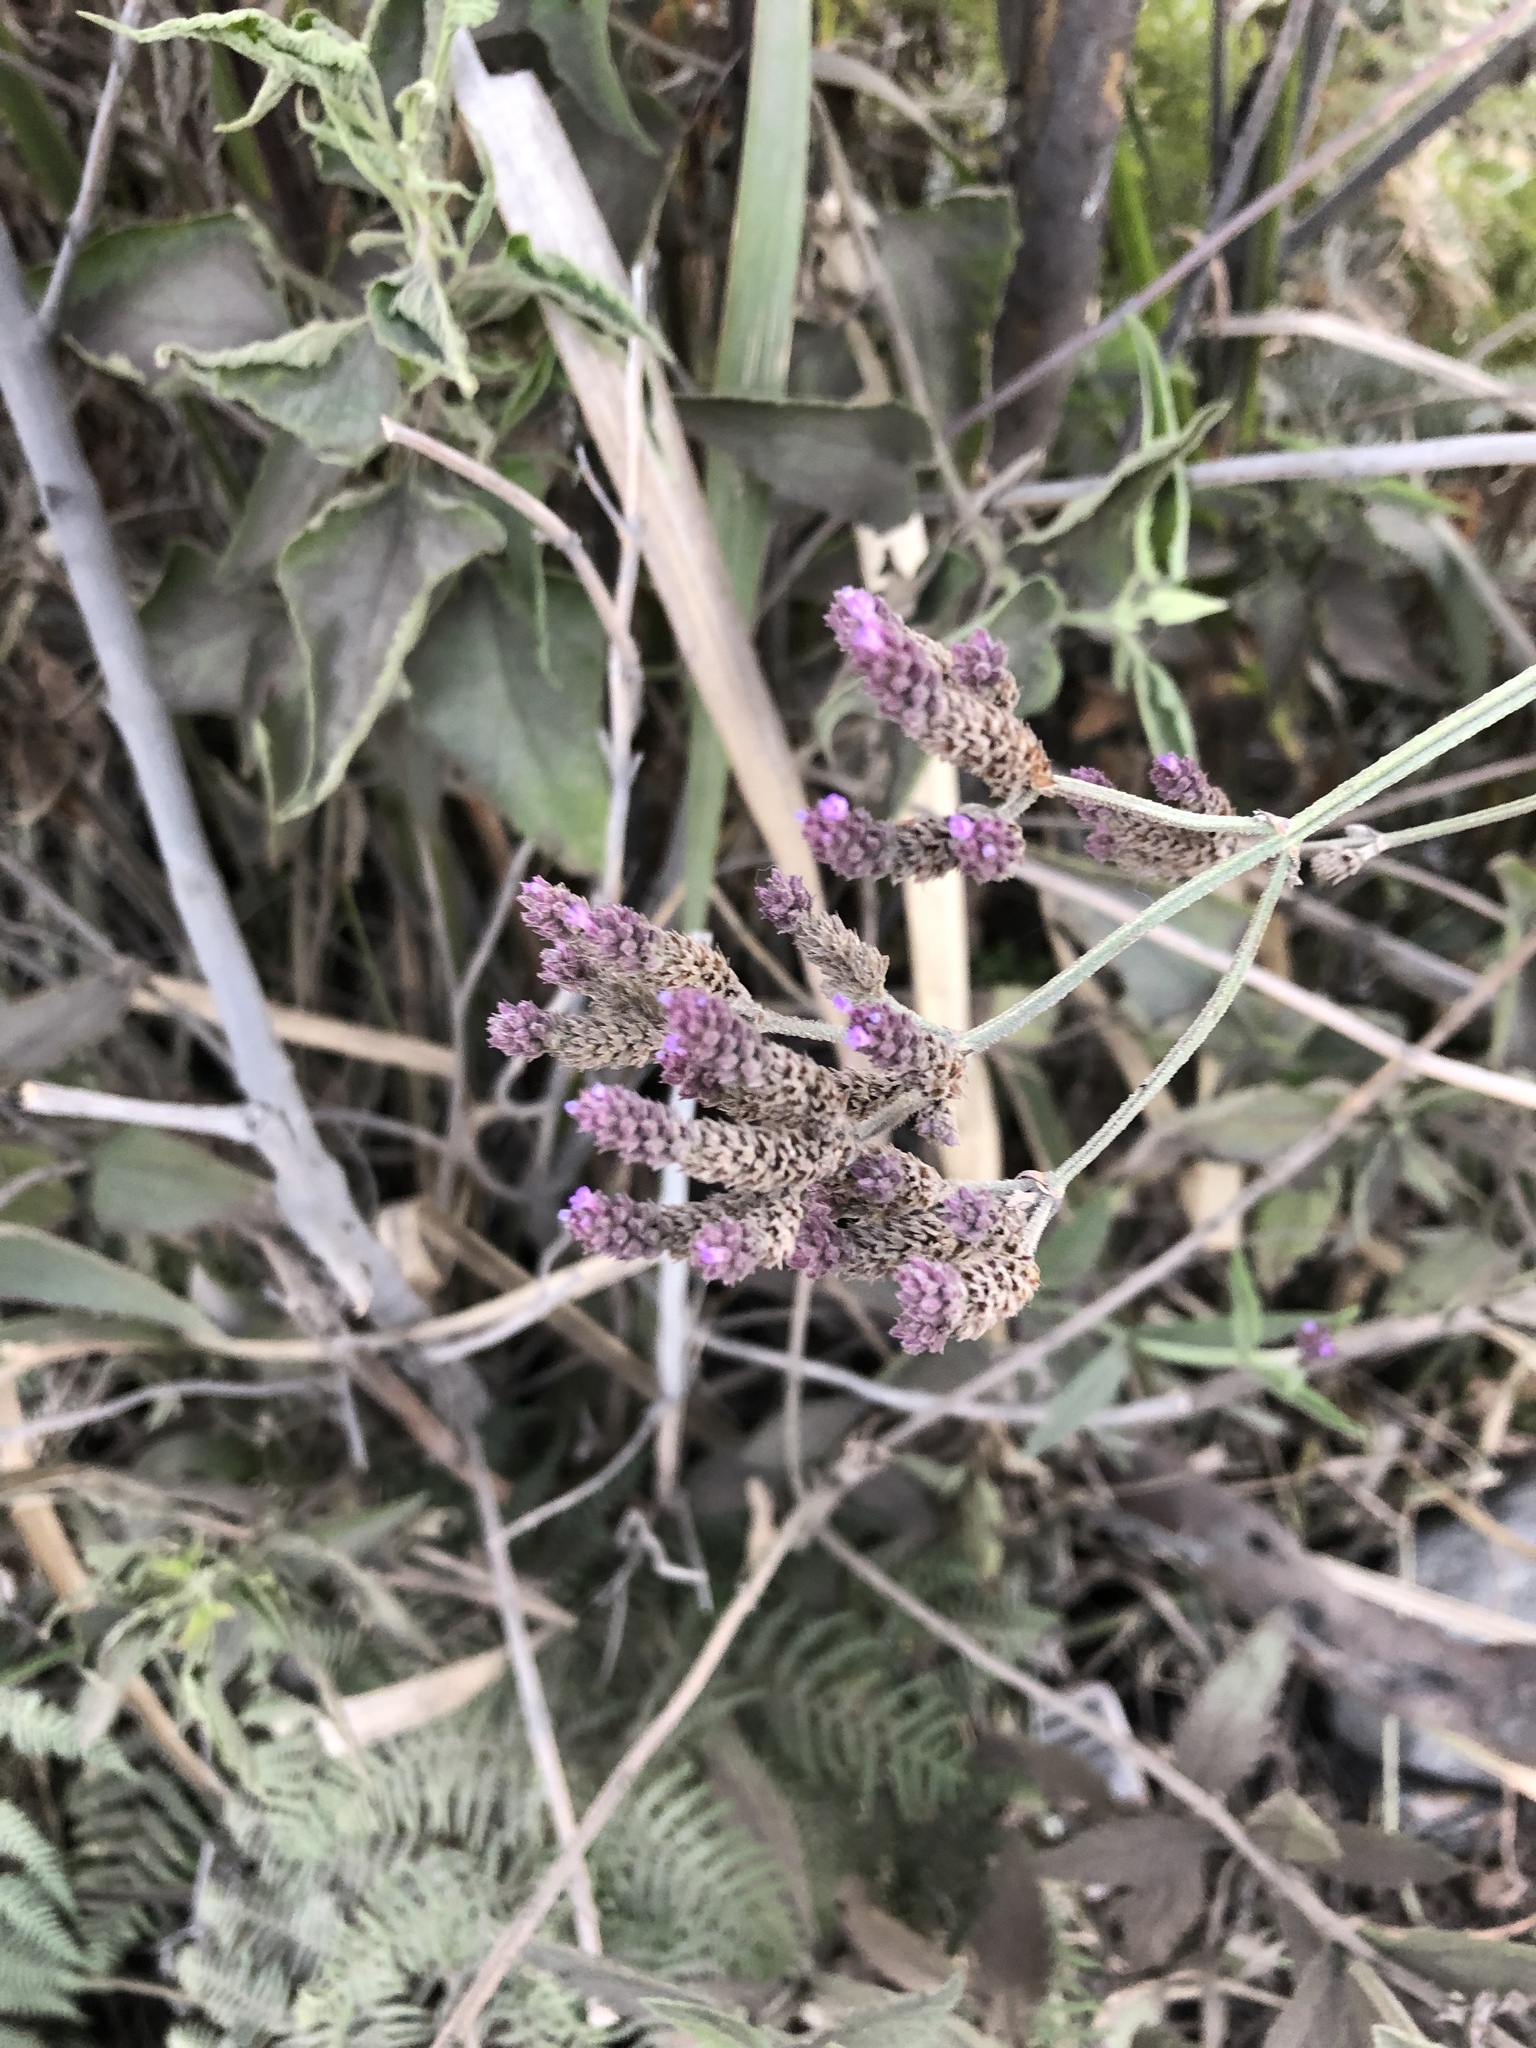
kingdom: Plantae
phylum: Tracheophyta
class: Magnoliopsida
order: Lamiales
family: Verbenaceae
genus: Verbena
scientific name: Verbena brasiliensis
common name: Brazilian vervain
